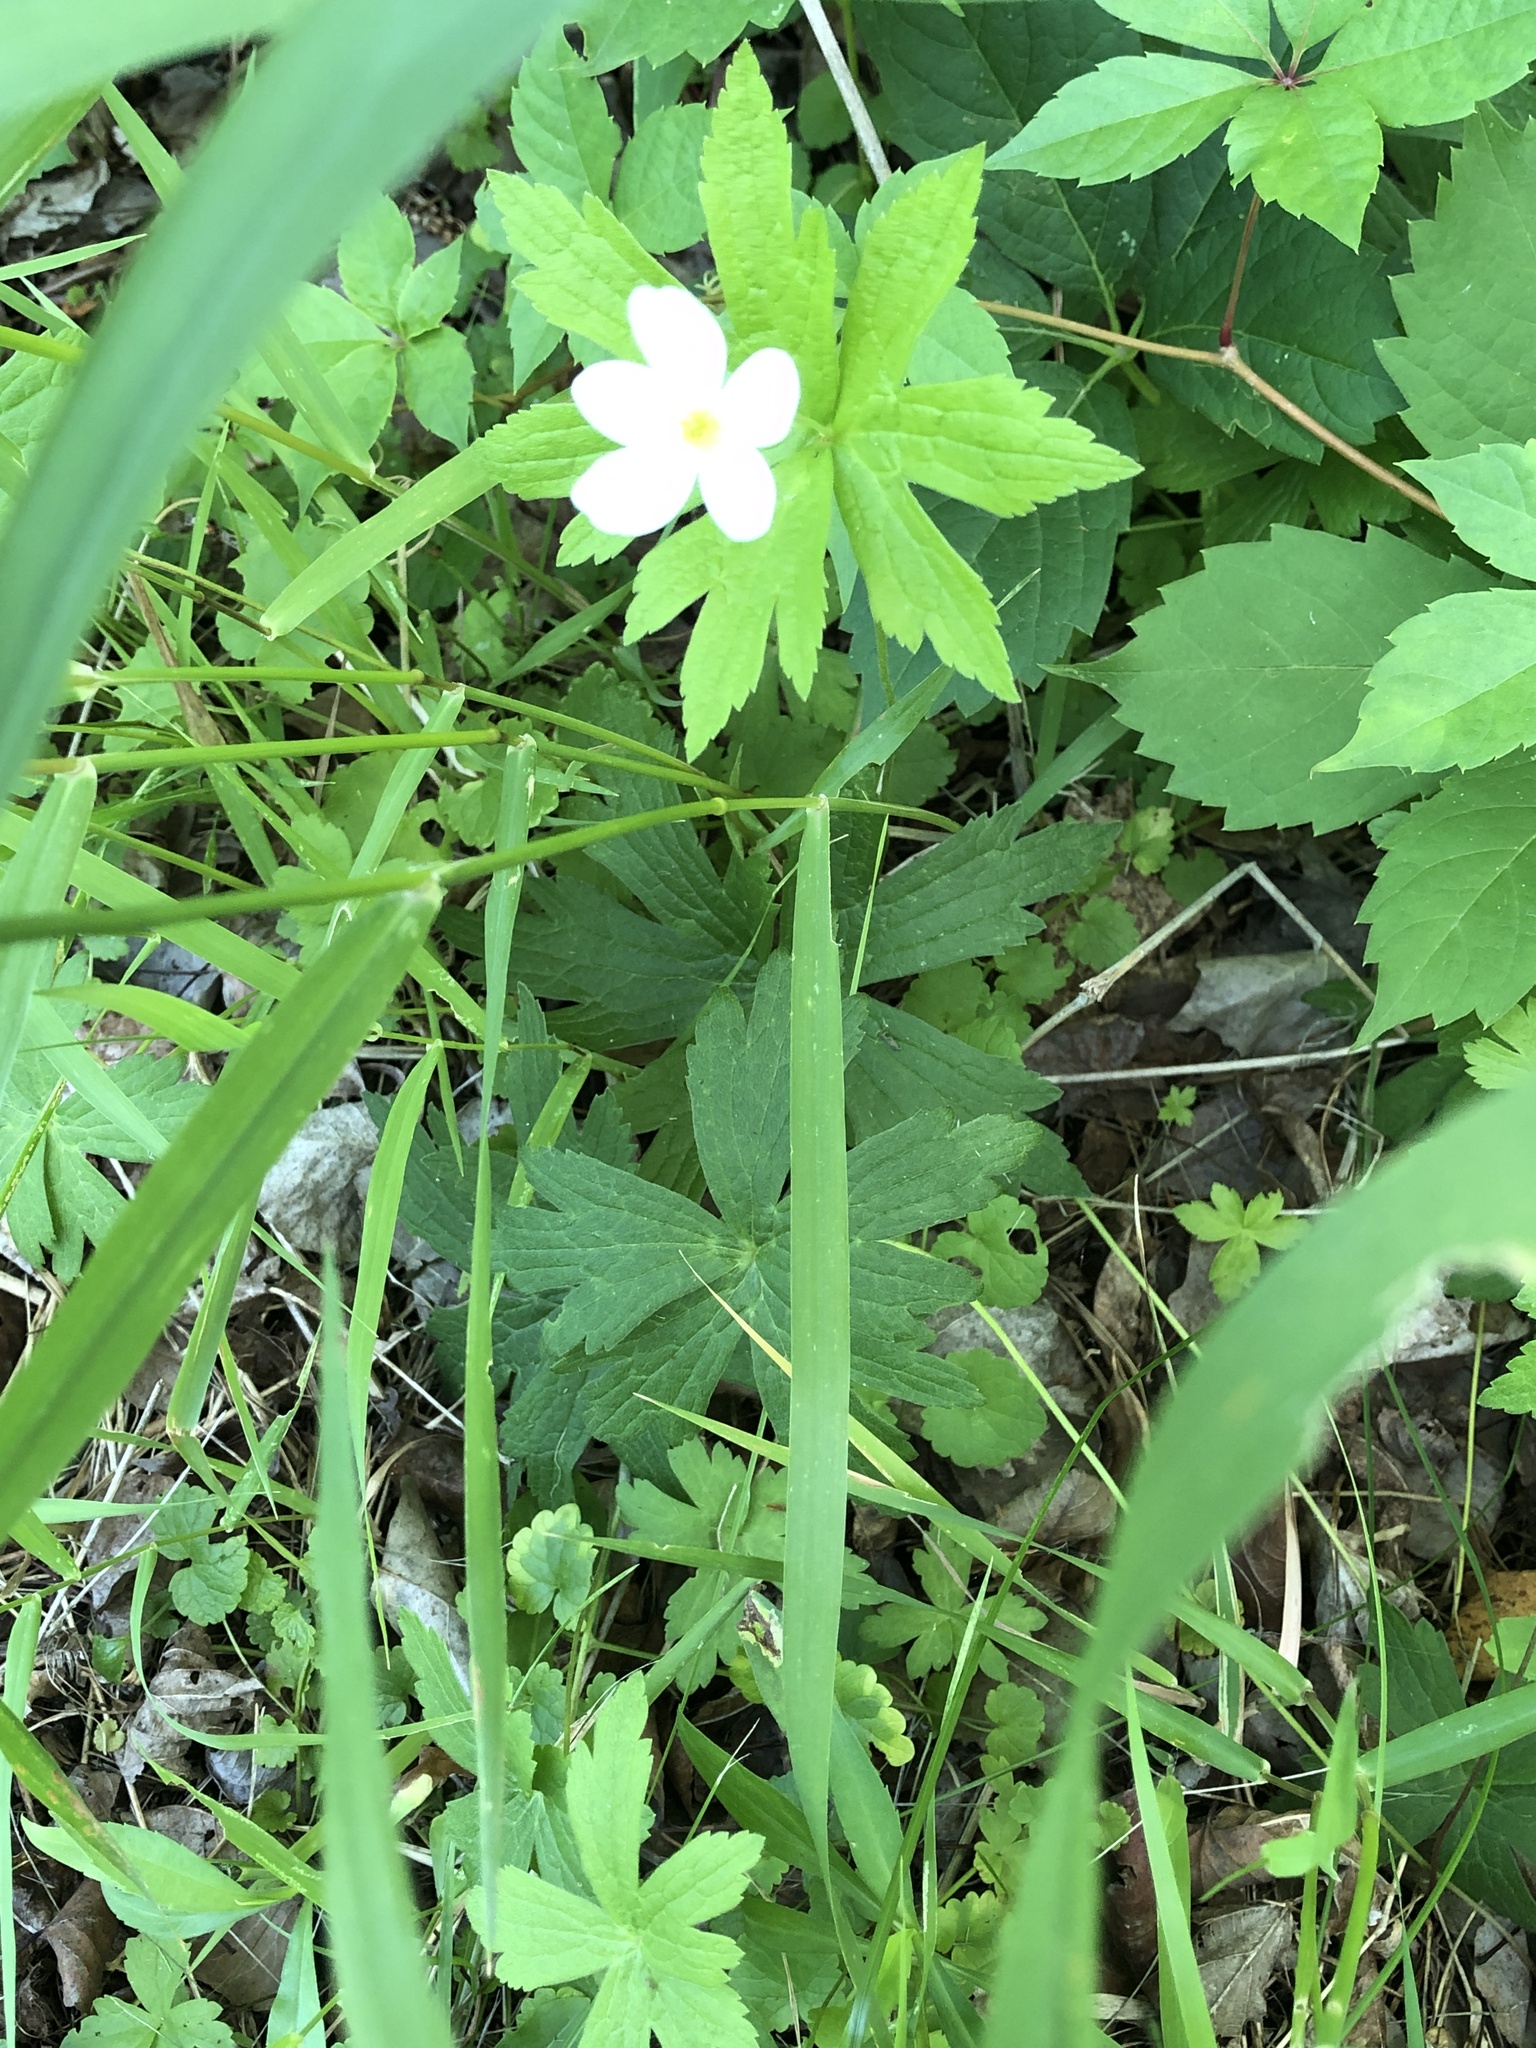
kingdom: Plantae
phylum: Tracheophyta
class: Magnoliopsida
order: Ranunculales
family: Ranunculaceae
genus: Anemonastrum
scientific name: Anemonastrum canadense
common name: Canada anemone
